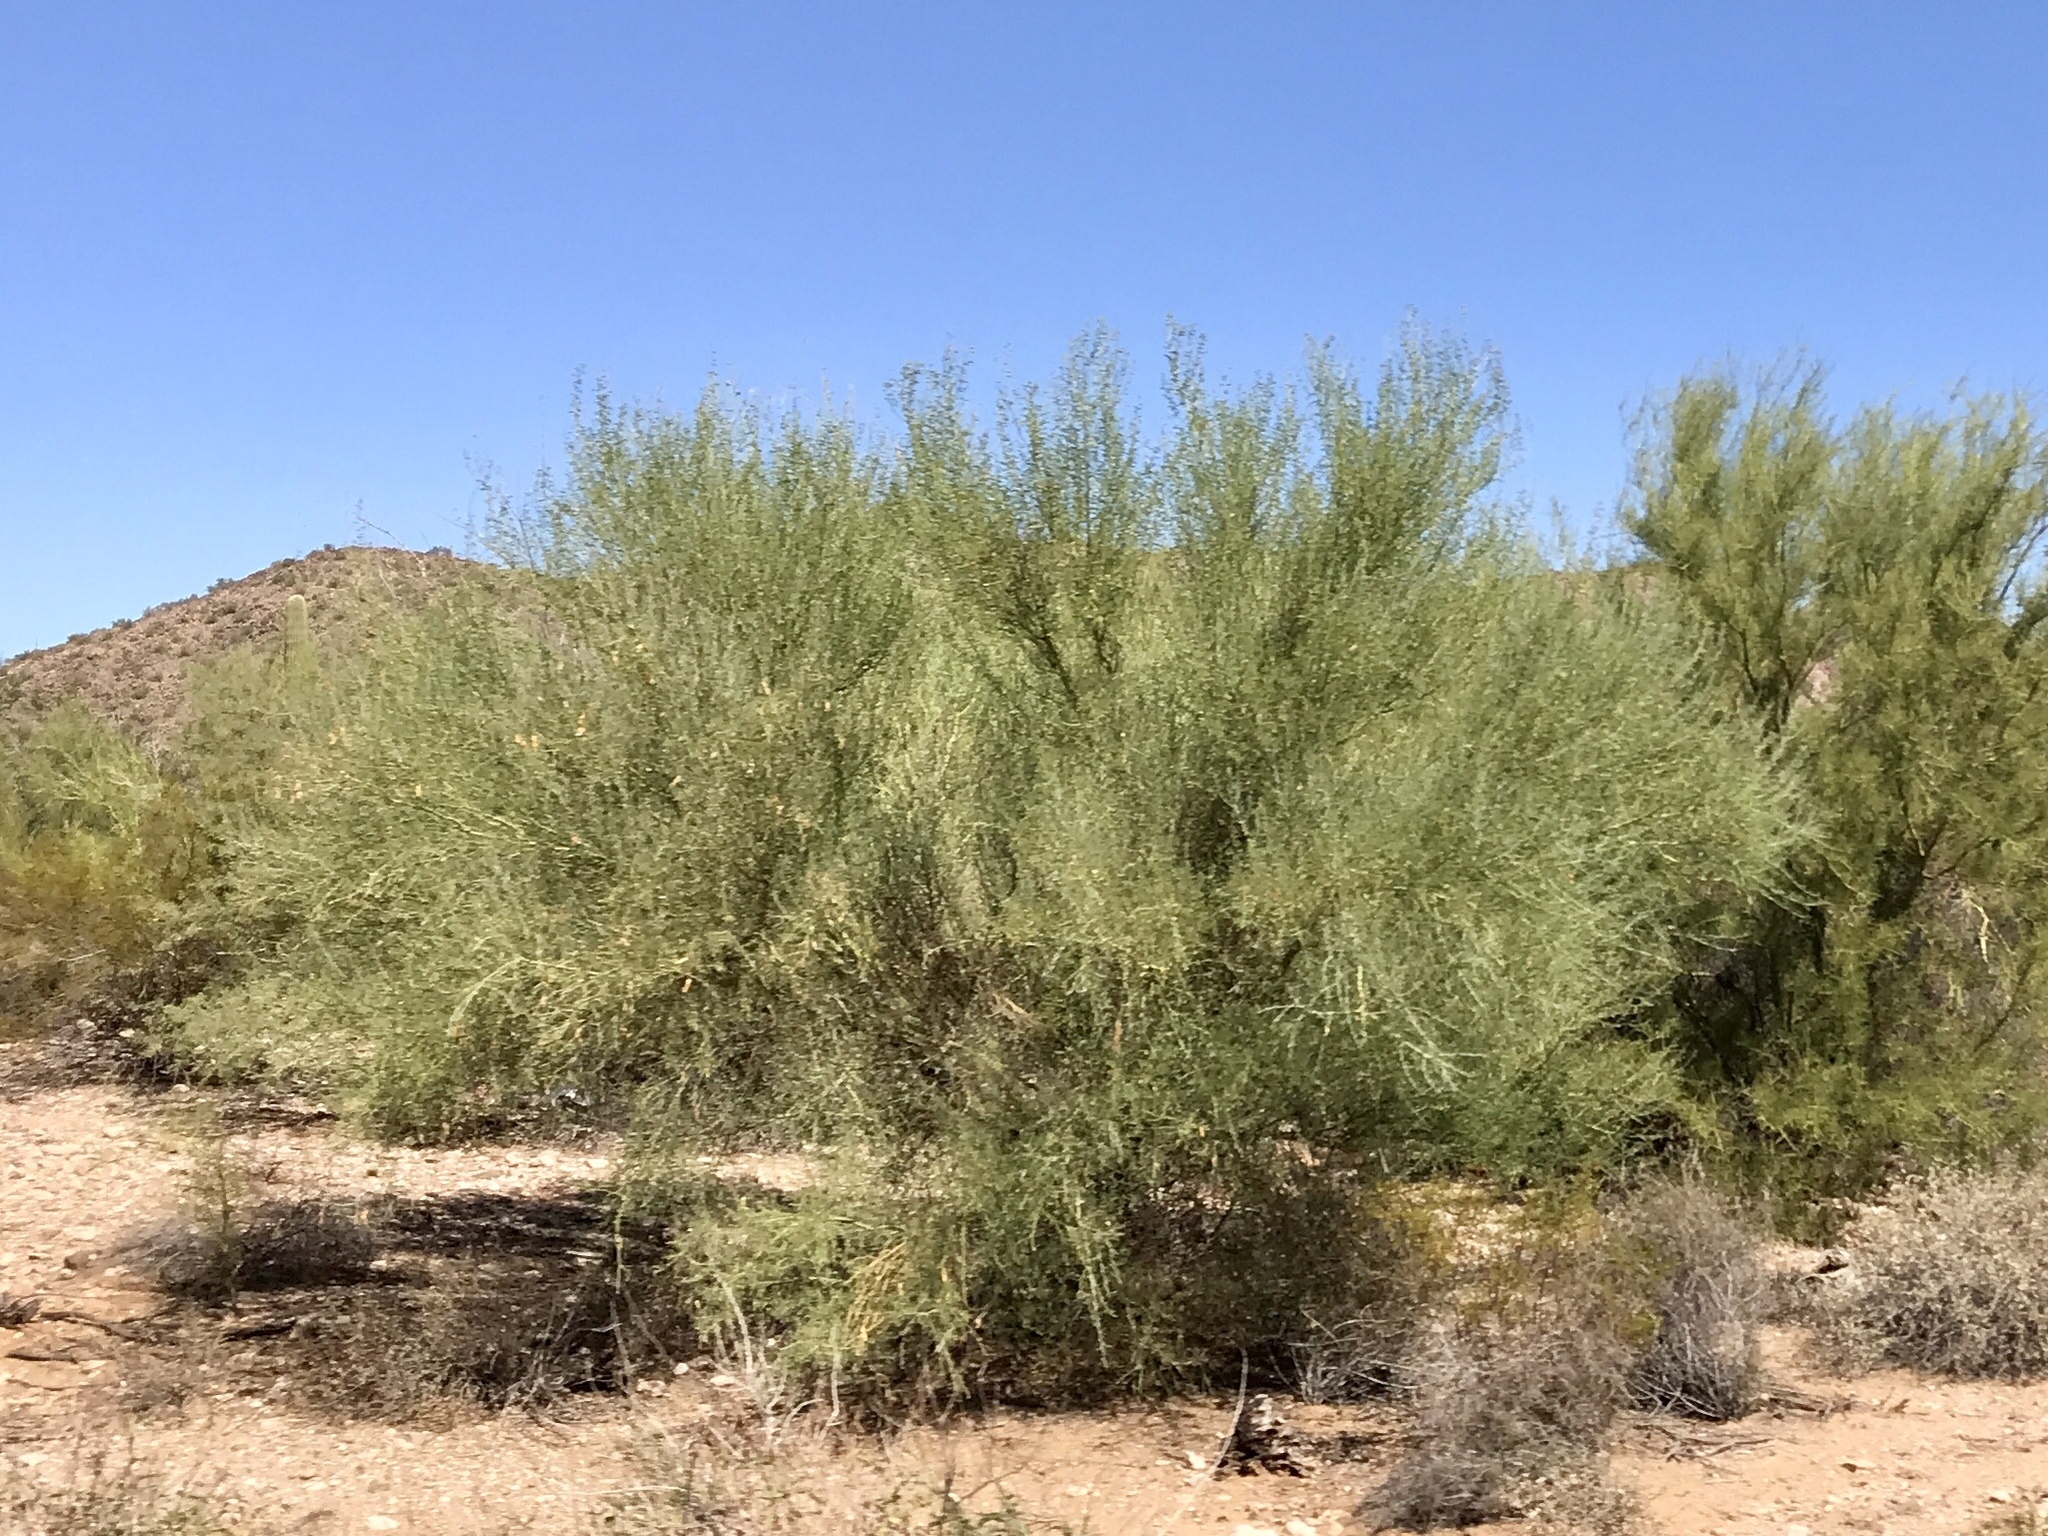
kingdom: Plantae
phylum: Tracheophyta
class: Magnoliopsida
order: Fabales
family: Fabaceae
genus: Parkinsonia
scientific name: Parkinsonia florida
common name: Blue paloverde
